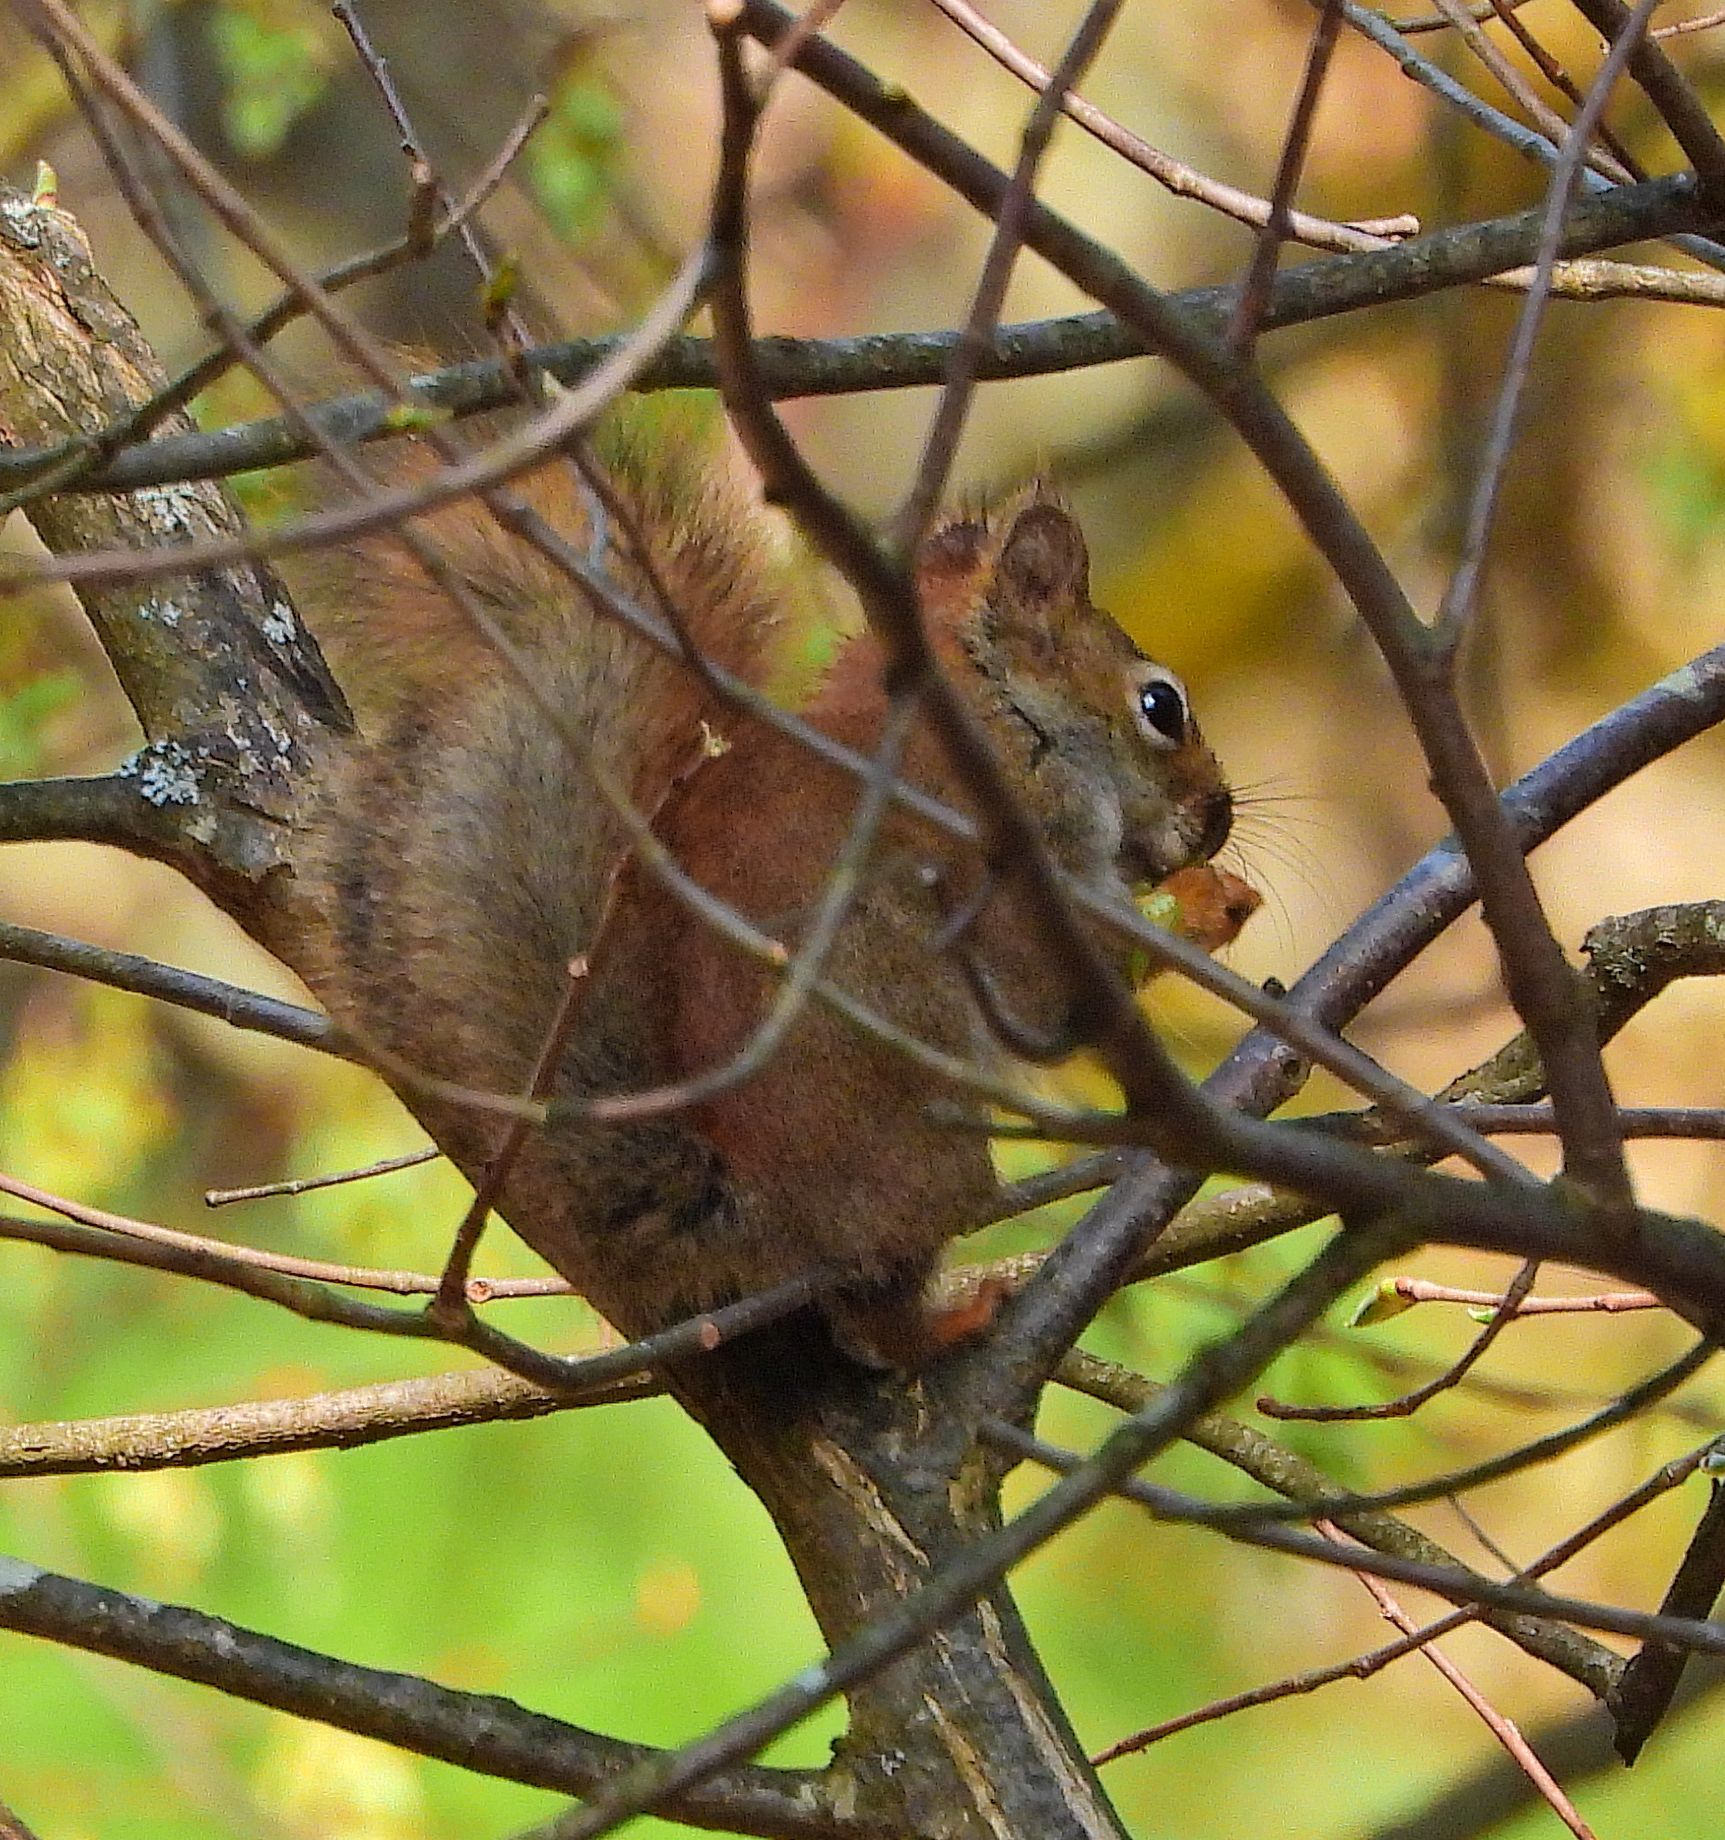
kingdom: Animalia
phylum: Chordata
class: Mammalia
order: Rodentia
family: Sciuridae
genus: Tamiasciurus
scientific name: Tamiasciurus hudsonicus
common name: Red squirrel
